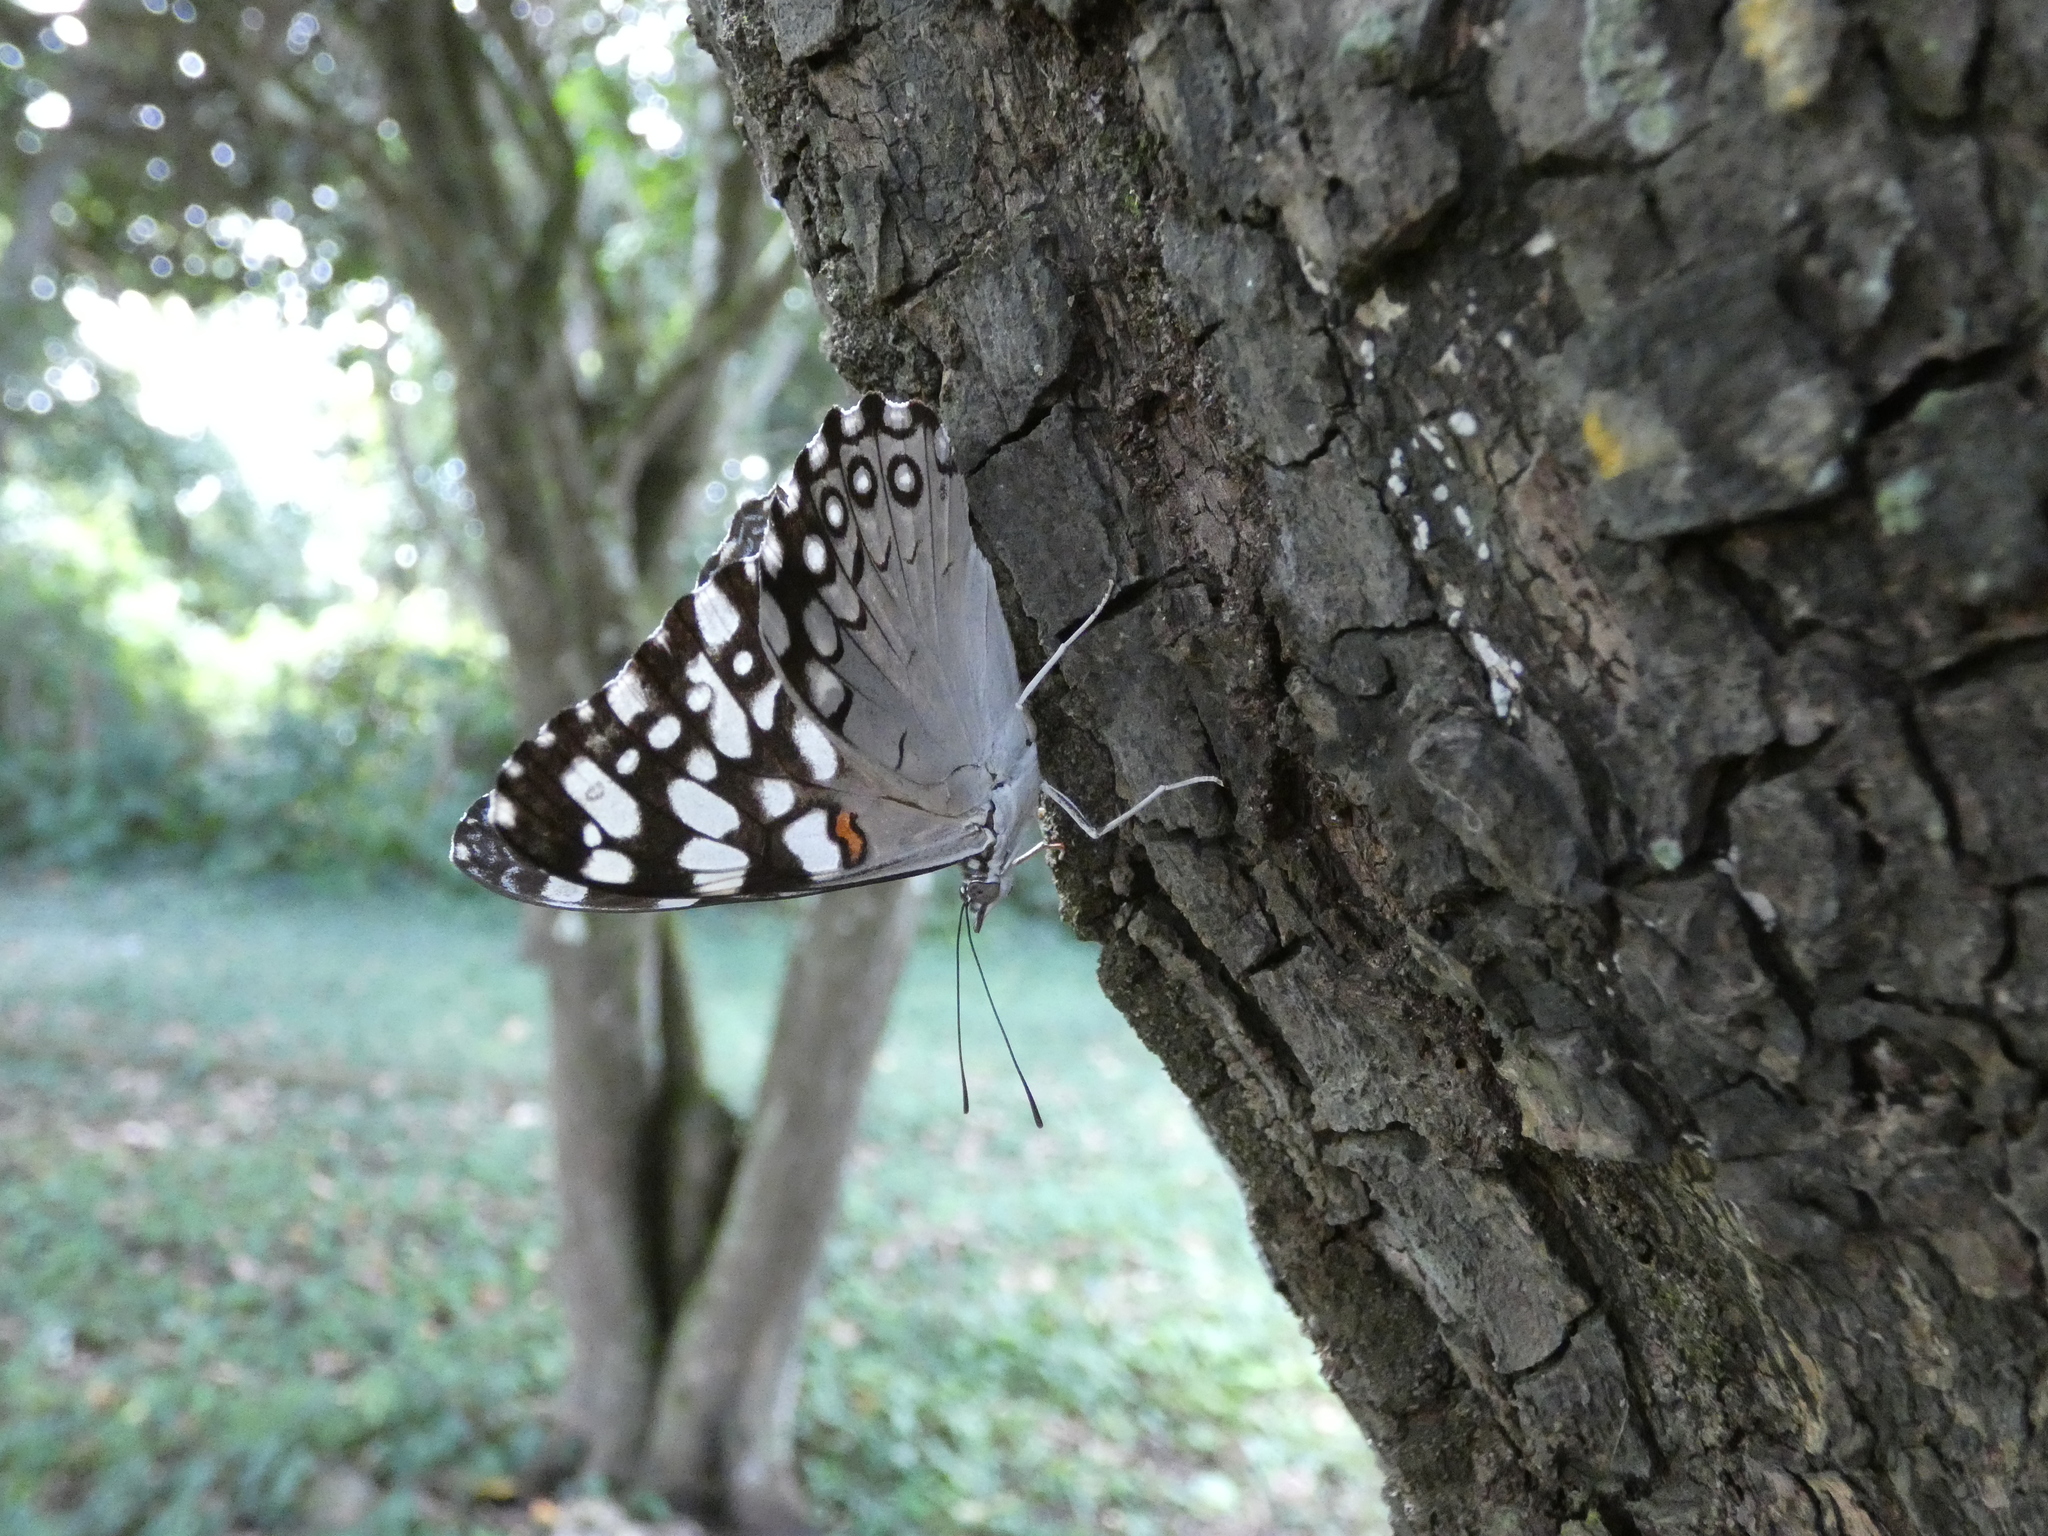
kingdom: Animalia
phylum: Arthropoda
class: Insecta
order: Lepidoptera
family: Nymphalidae
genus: Hamadryas
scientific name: Hamadryas feronia
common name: Variable cracker
